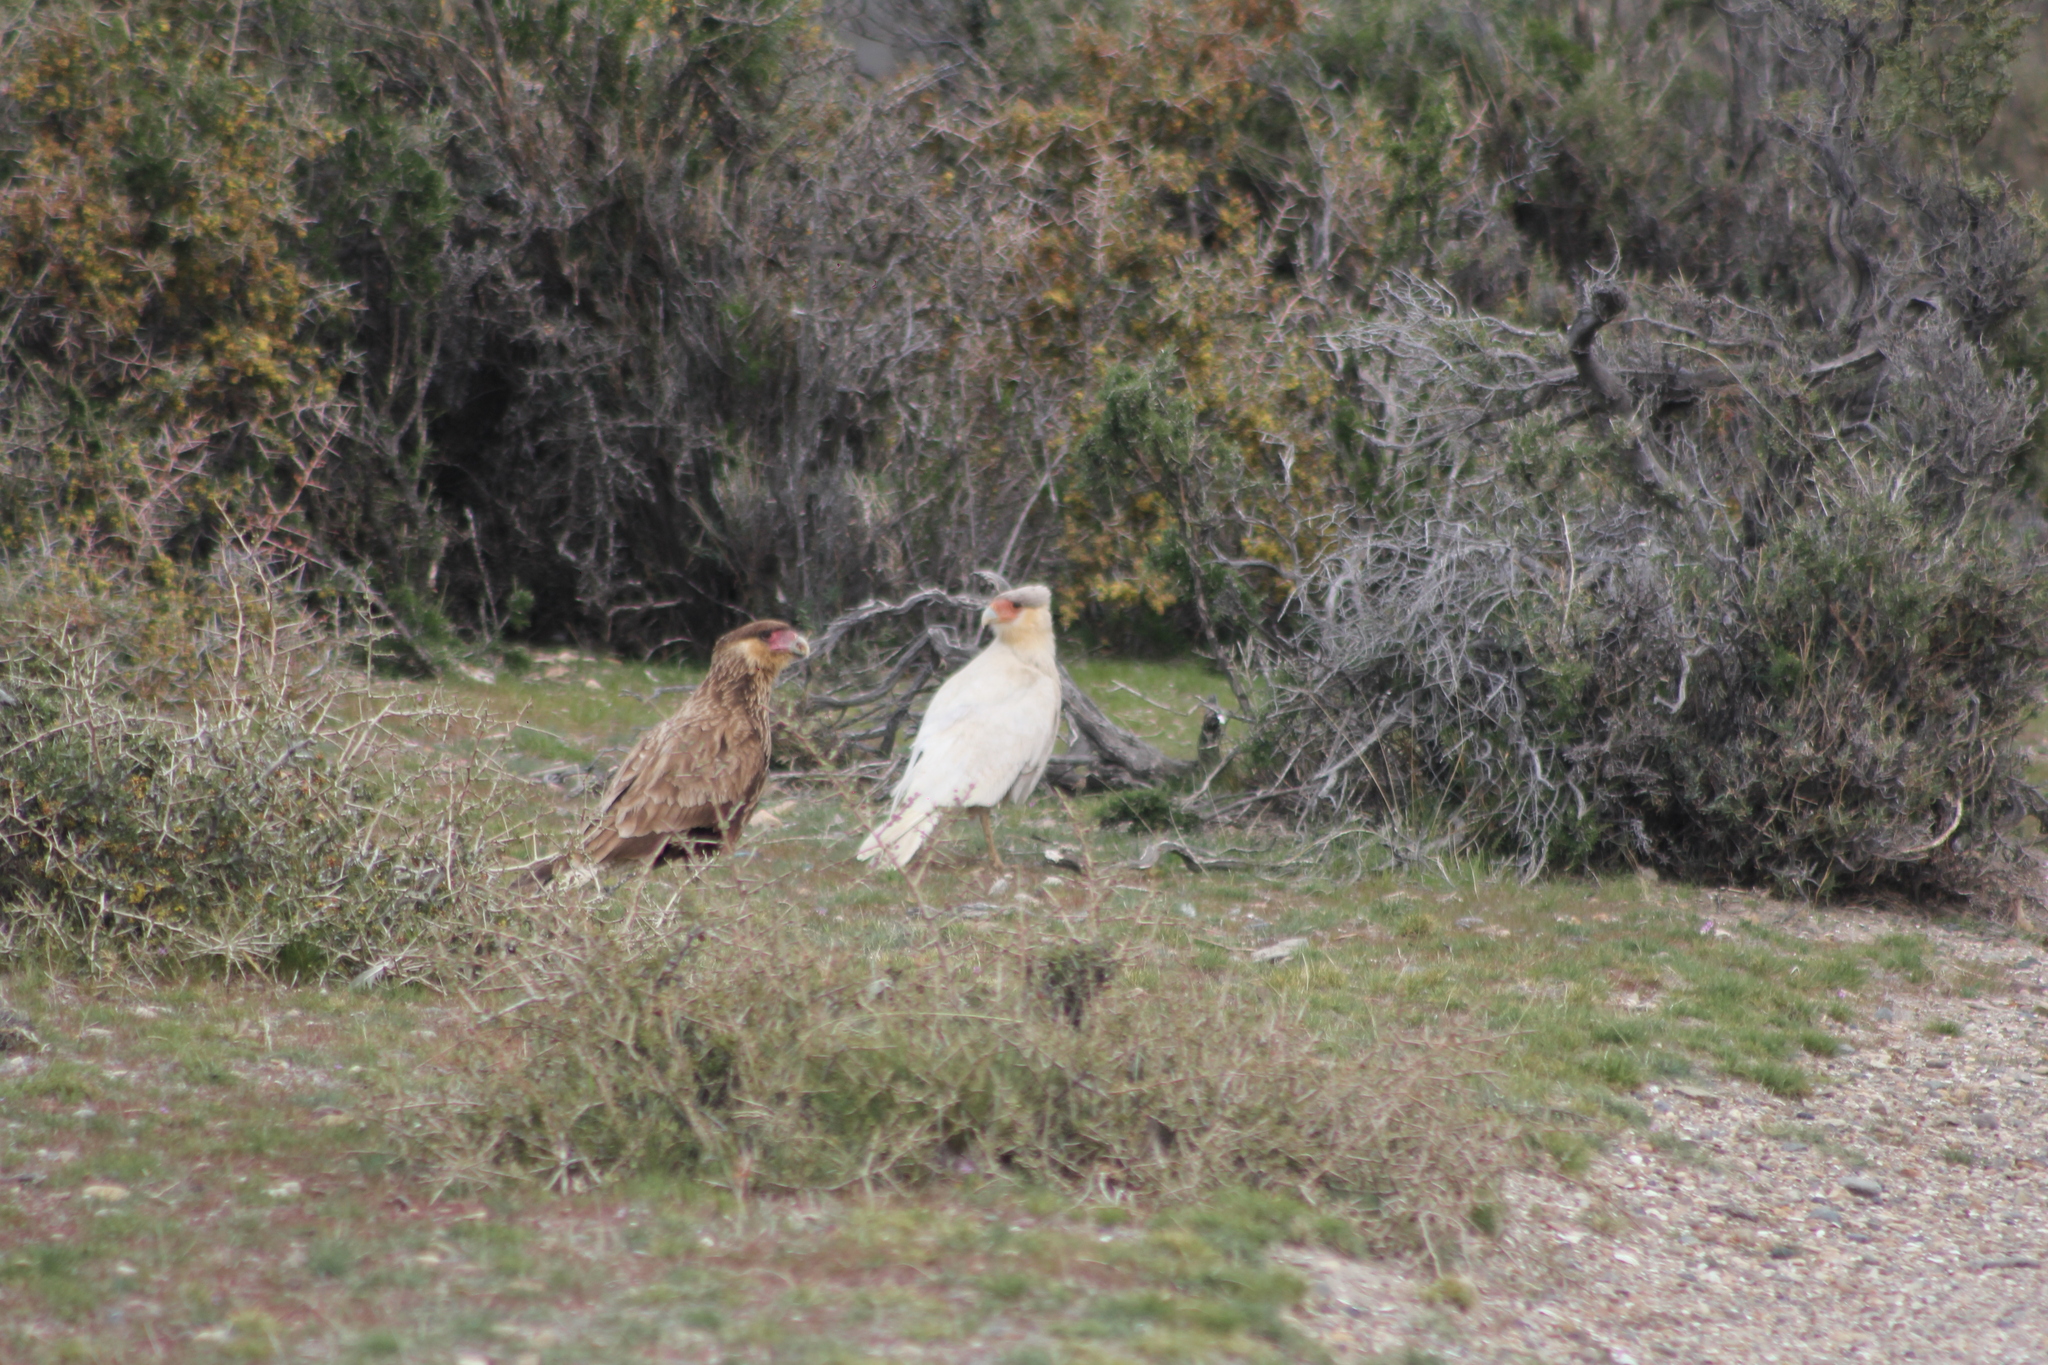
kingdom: Animalia
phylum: Chordata
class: Aves
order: Falconiformes
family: Falconidae
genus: Caracara
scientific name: Caracara plancus
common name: Southern caracara
